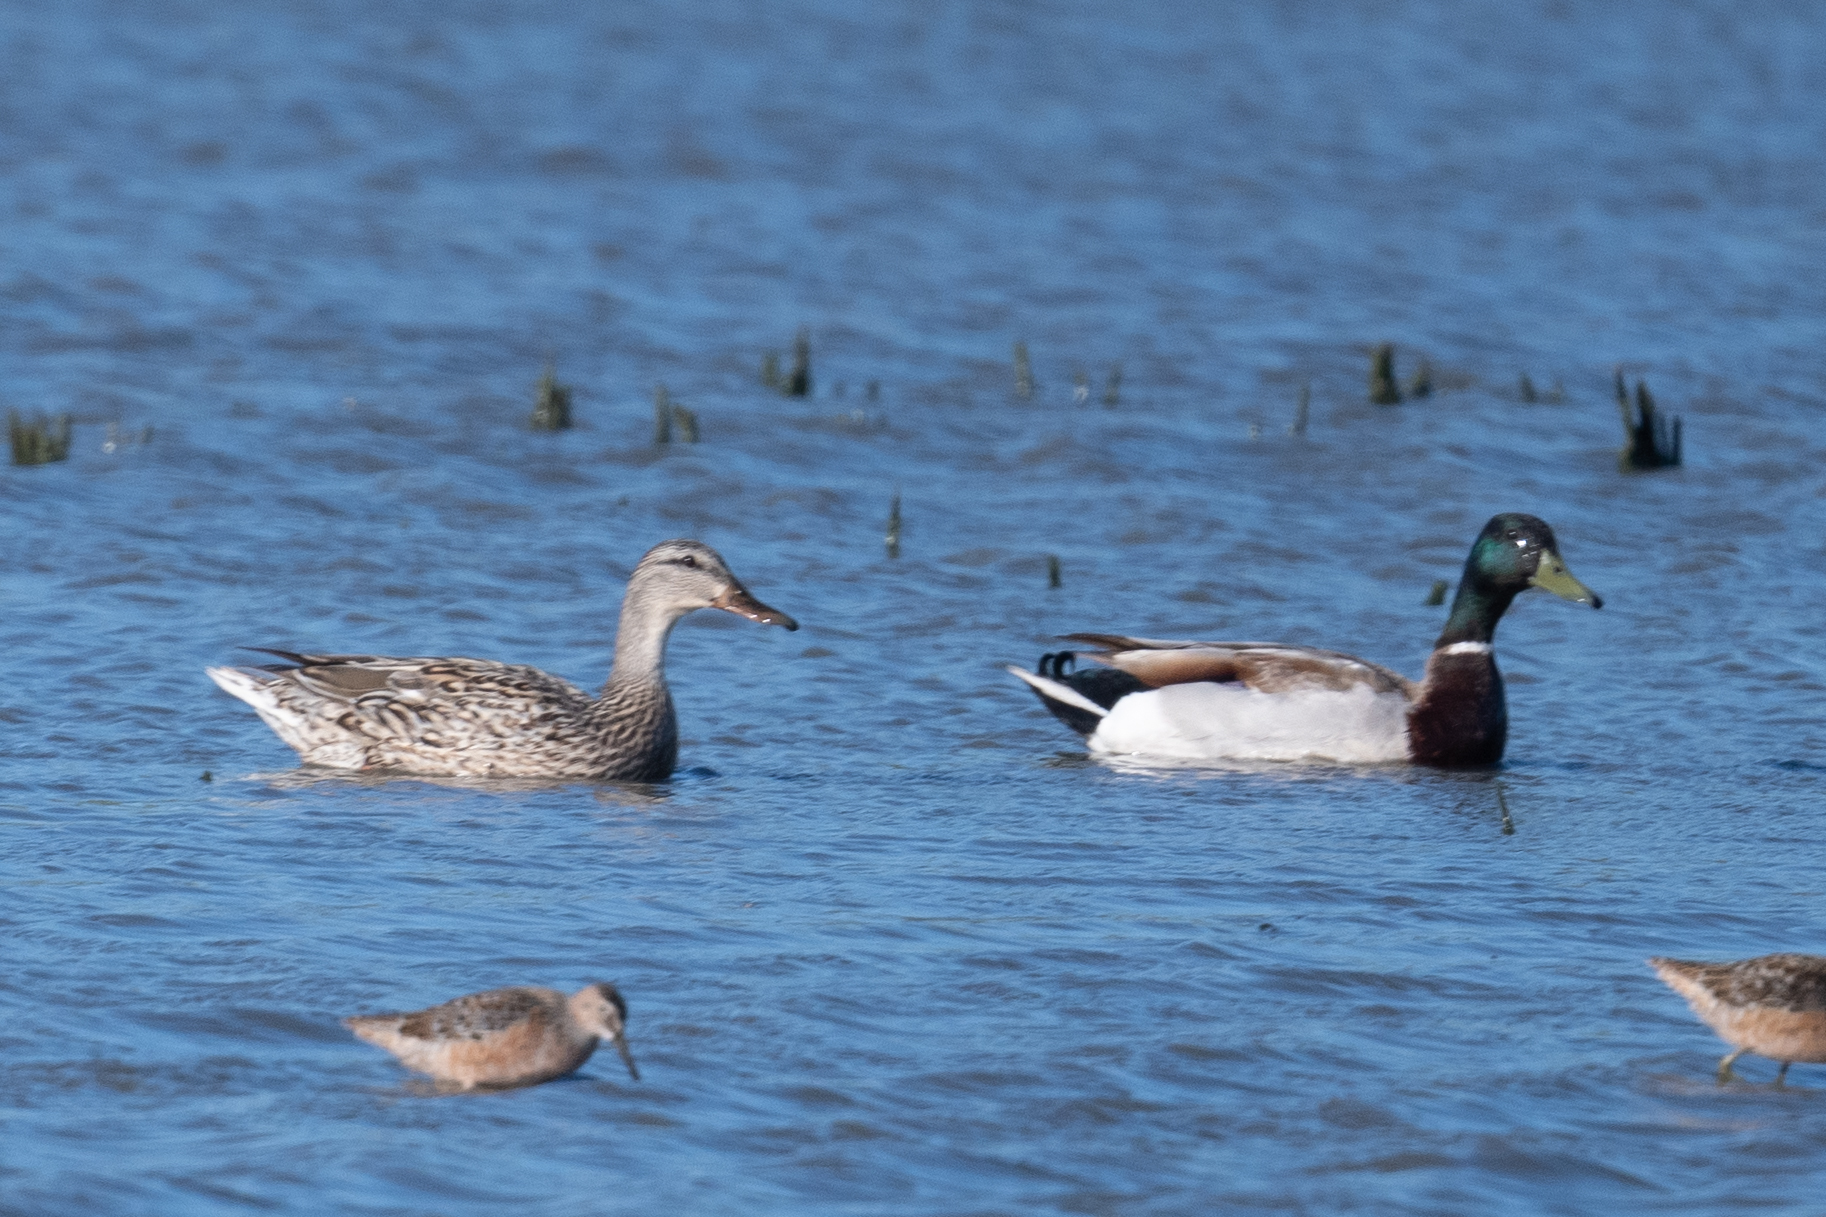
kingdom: Animalia
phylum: Chordata
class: Aves
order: Anseriformes
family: Anatidae
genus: Anas
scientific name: Anas platyrhynchos
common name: Mallard
